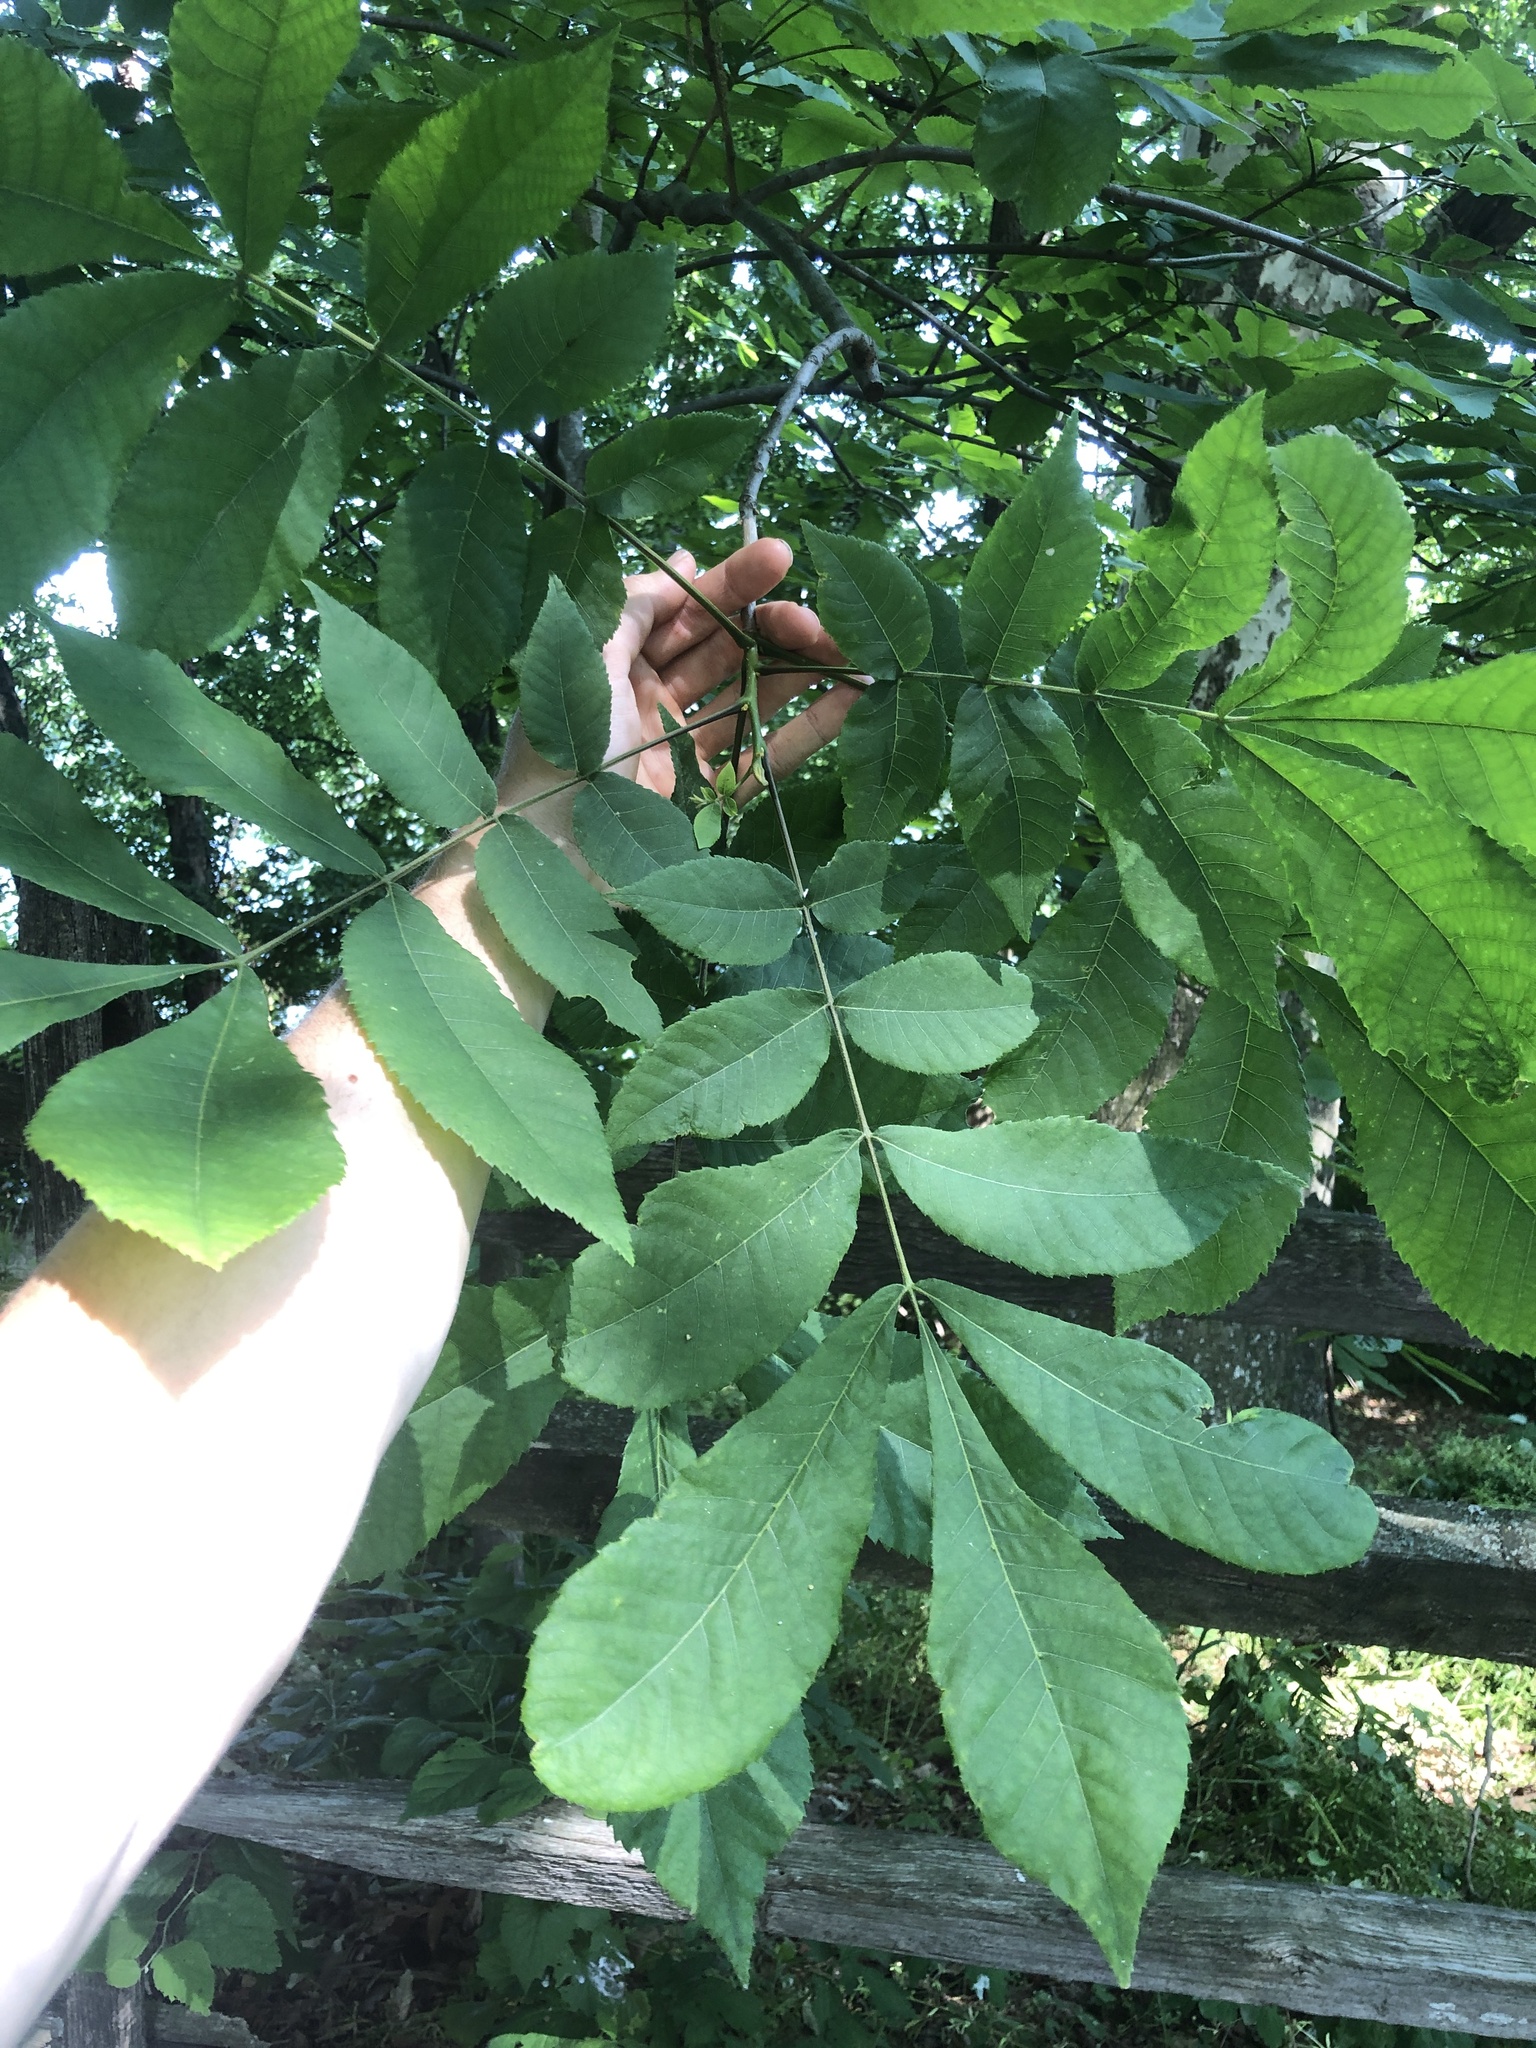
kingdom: Plantae
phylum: Tracheophyta
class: Magnoliopsida
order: Fagales
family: Juglandaceae
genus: Carya
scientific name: Carya cordiformis
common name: Bitternut hickory
